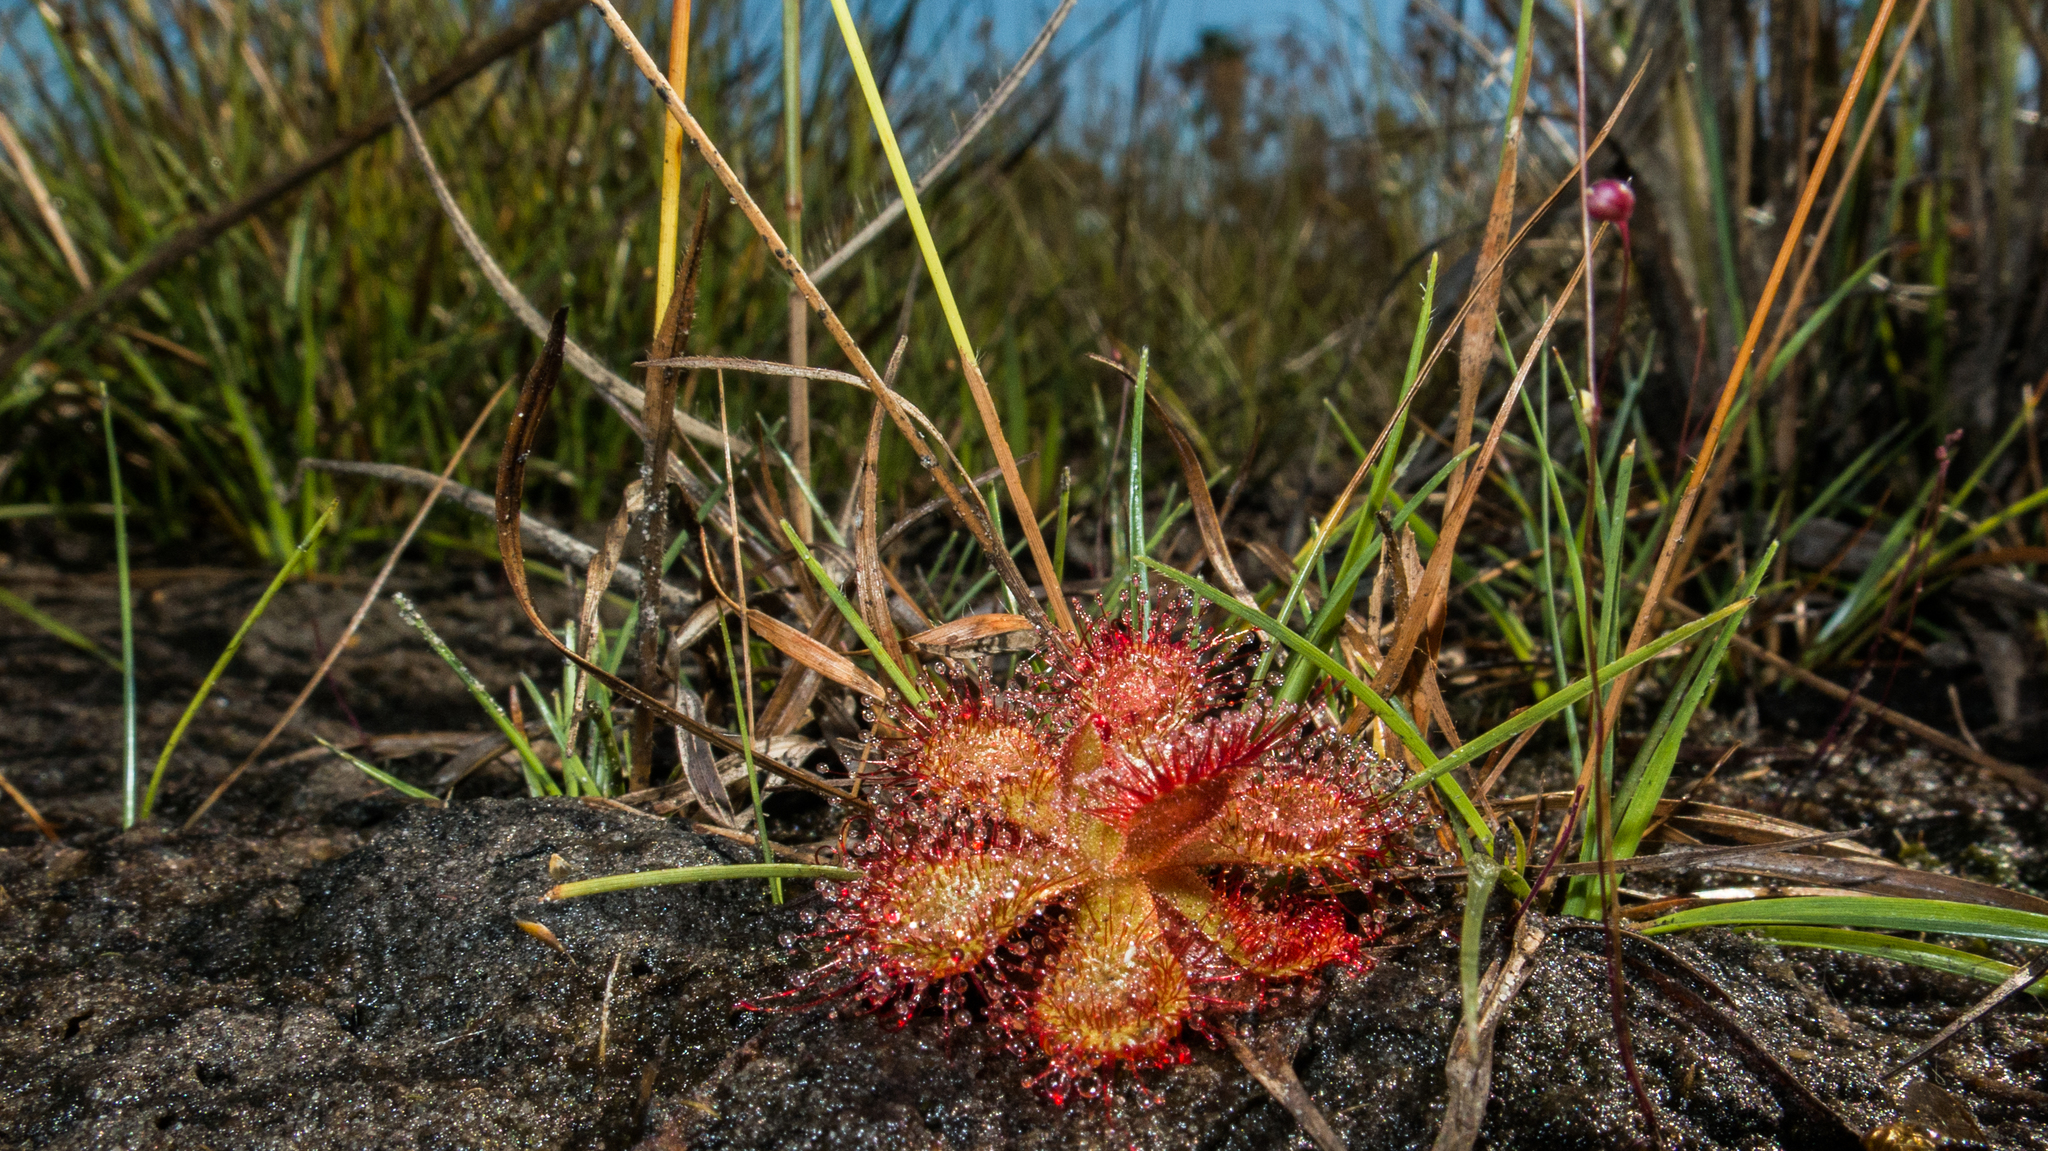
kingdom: Plantae
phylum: Tracheophyta
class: Magnoliopsida
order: Caryophyllales
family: Droseraceae
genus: Drosera
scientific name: Drosera sessilifolia
